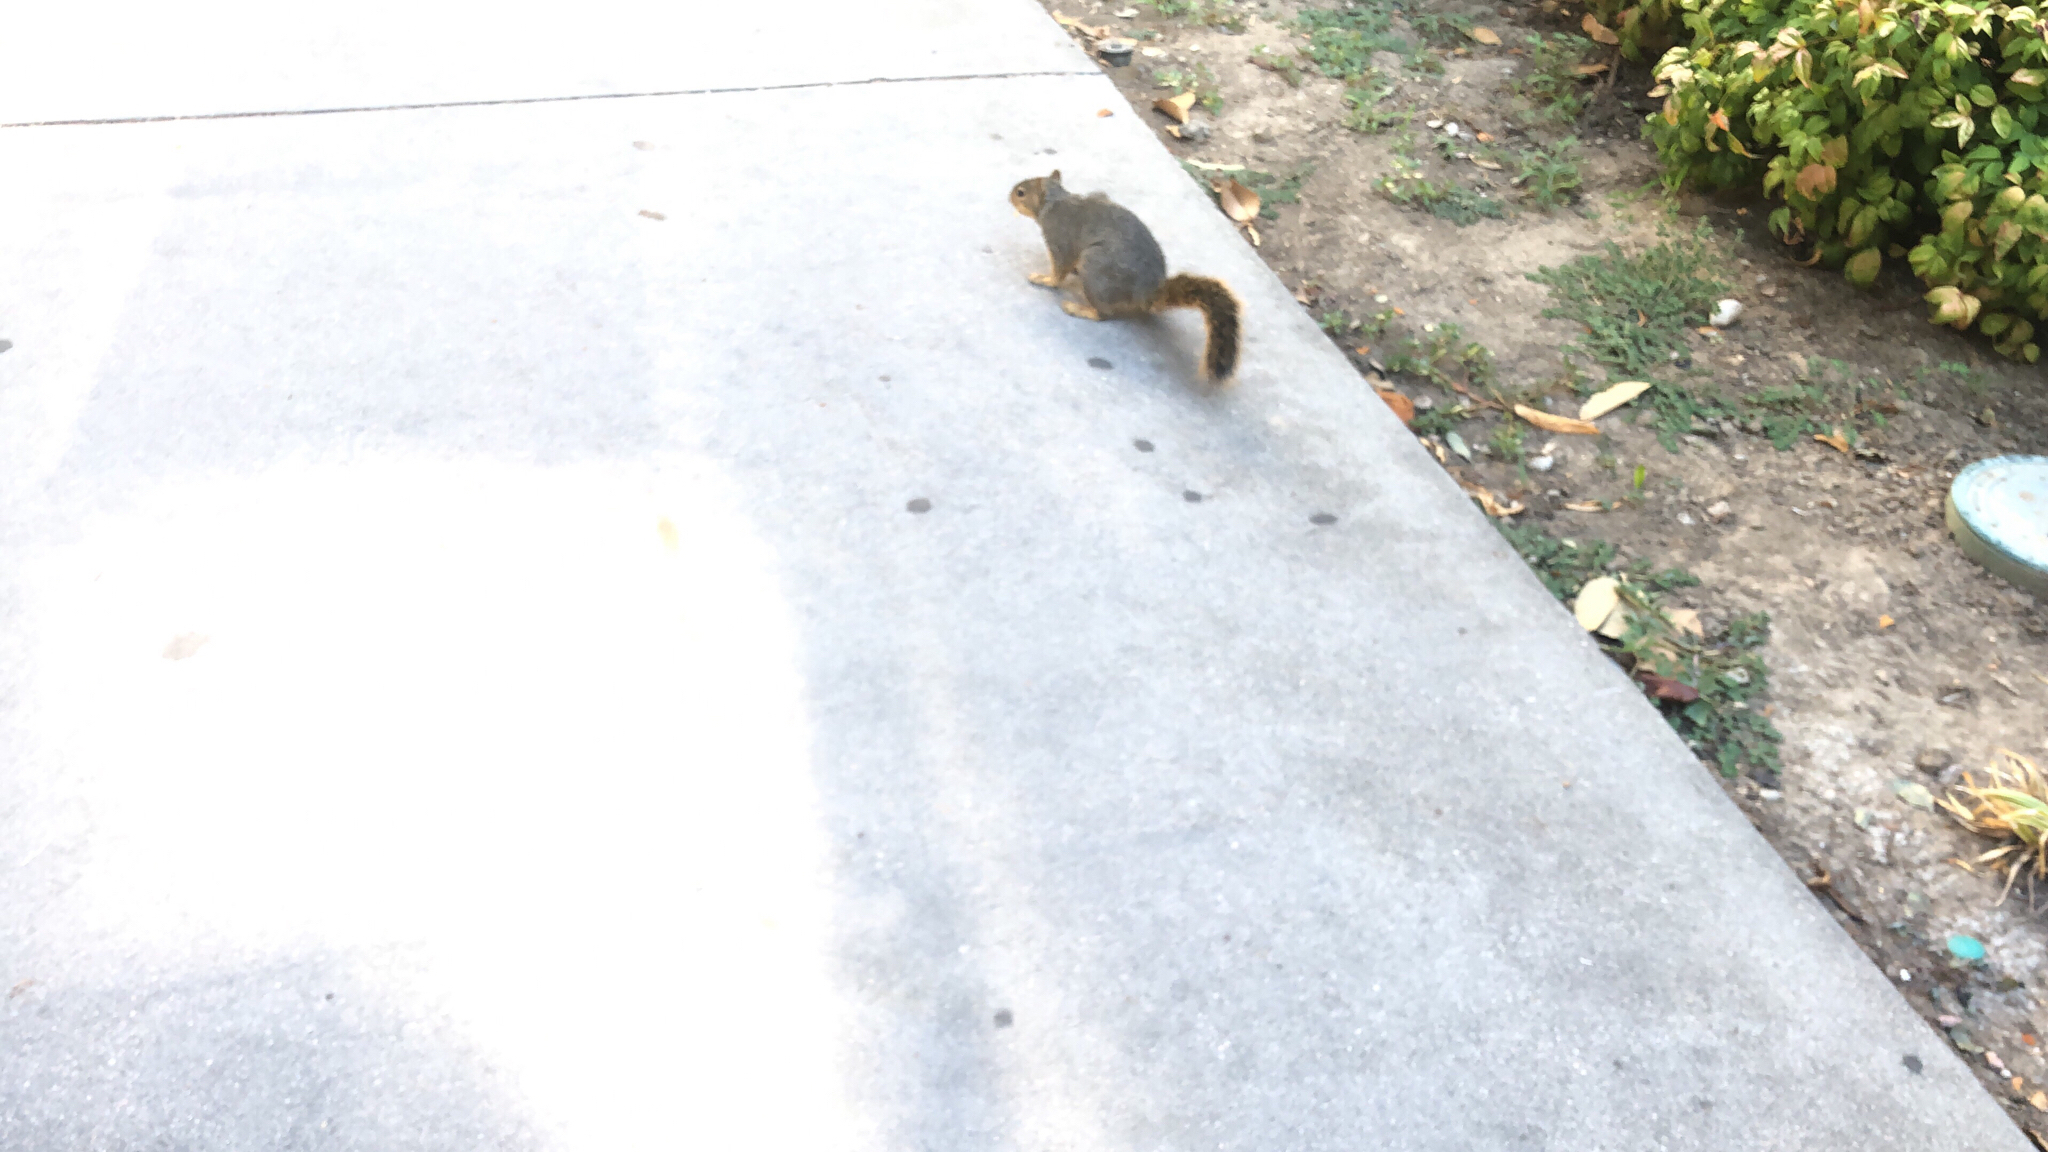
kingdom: Animalia
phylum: Chordata
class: Mammalia
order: Rodentia
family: Sciuridae
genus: Sciurus
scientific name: Sciurus niger
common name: Fox squirrel
